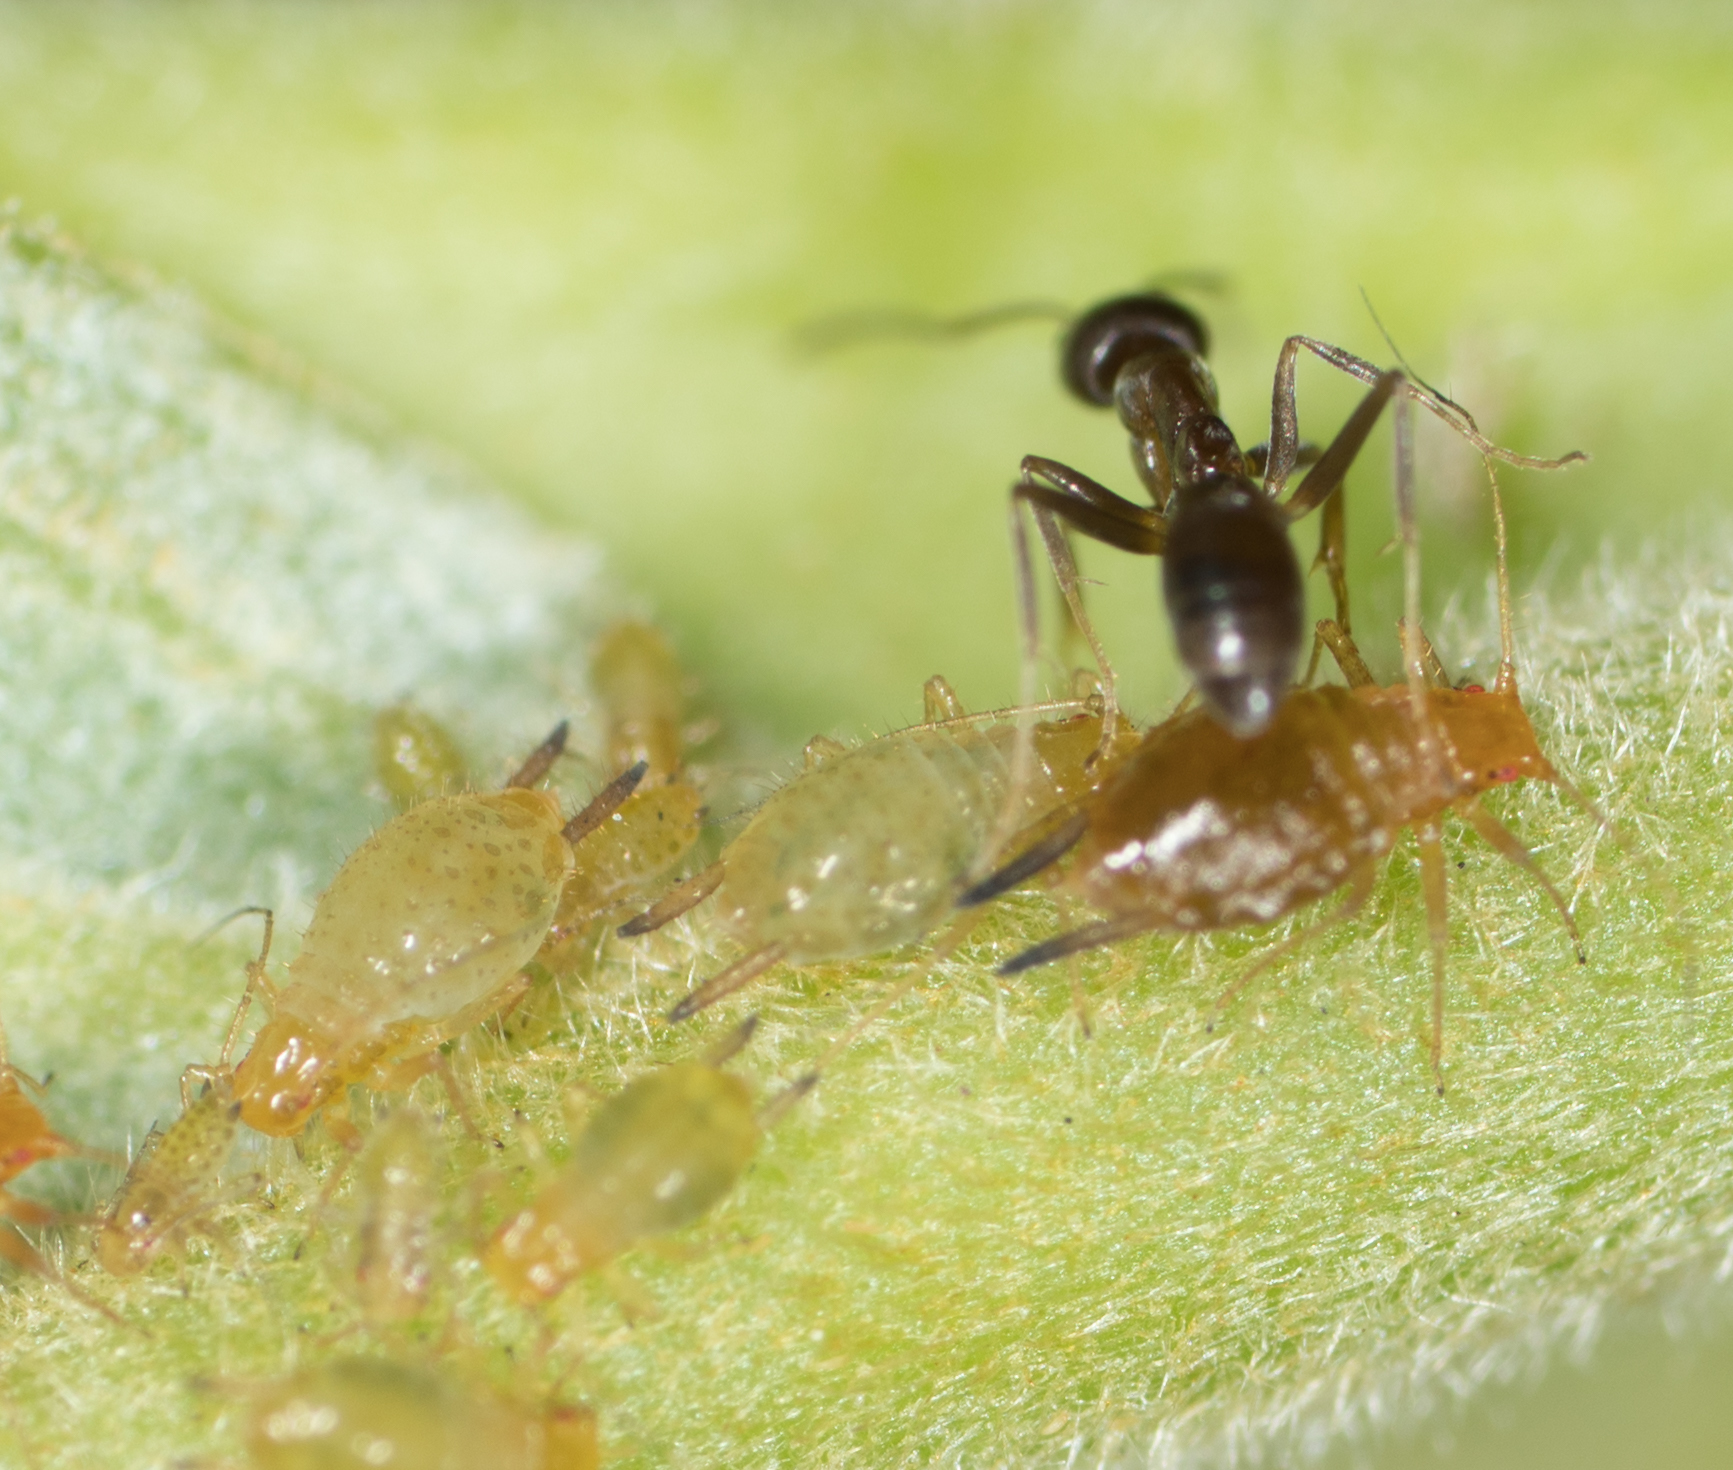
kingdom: Animalia
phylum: Arthropoda
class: Insecta
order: Hemiptera
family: Aphididae
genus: Greenidea
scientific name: Greenidea ficicola
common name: Aphid
